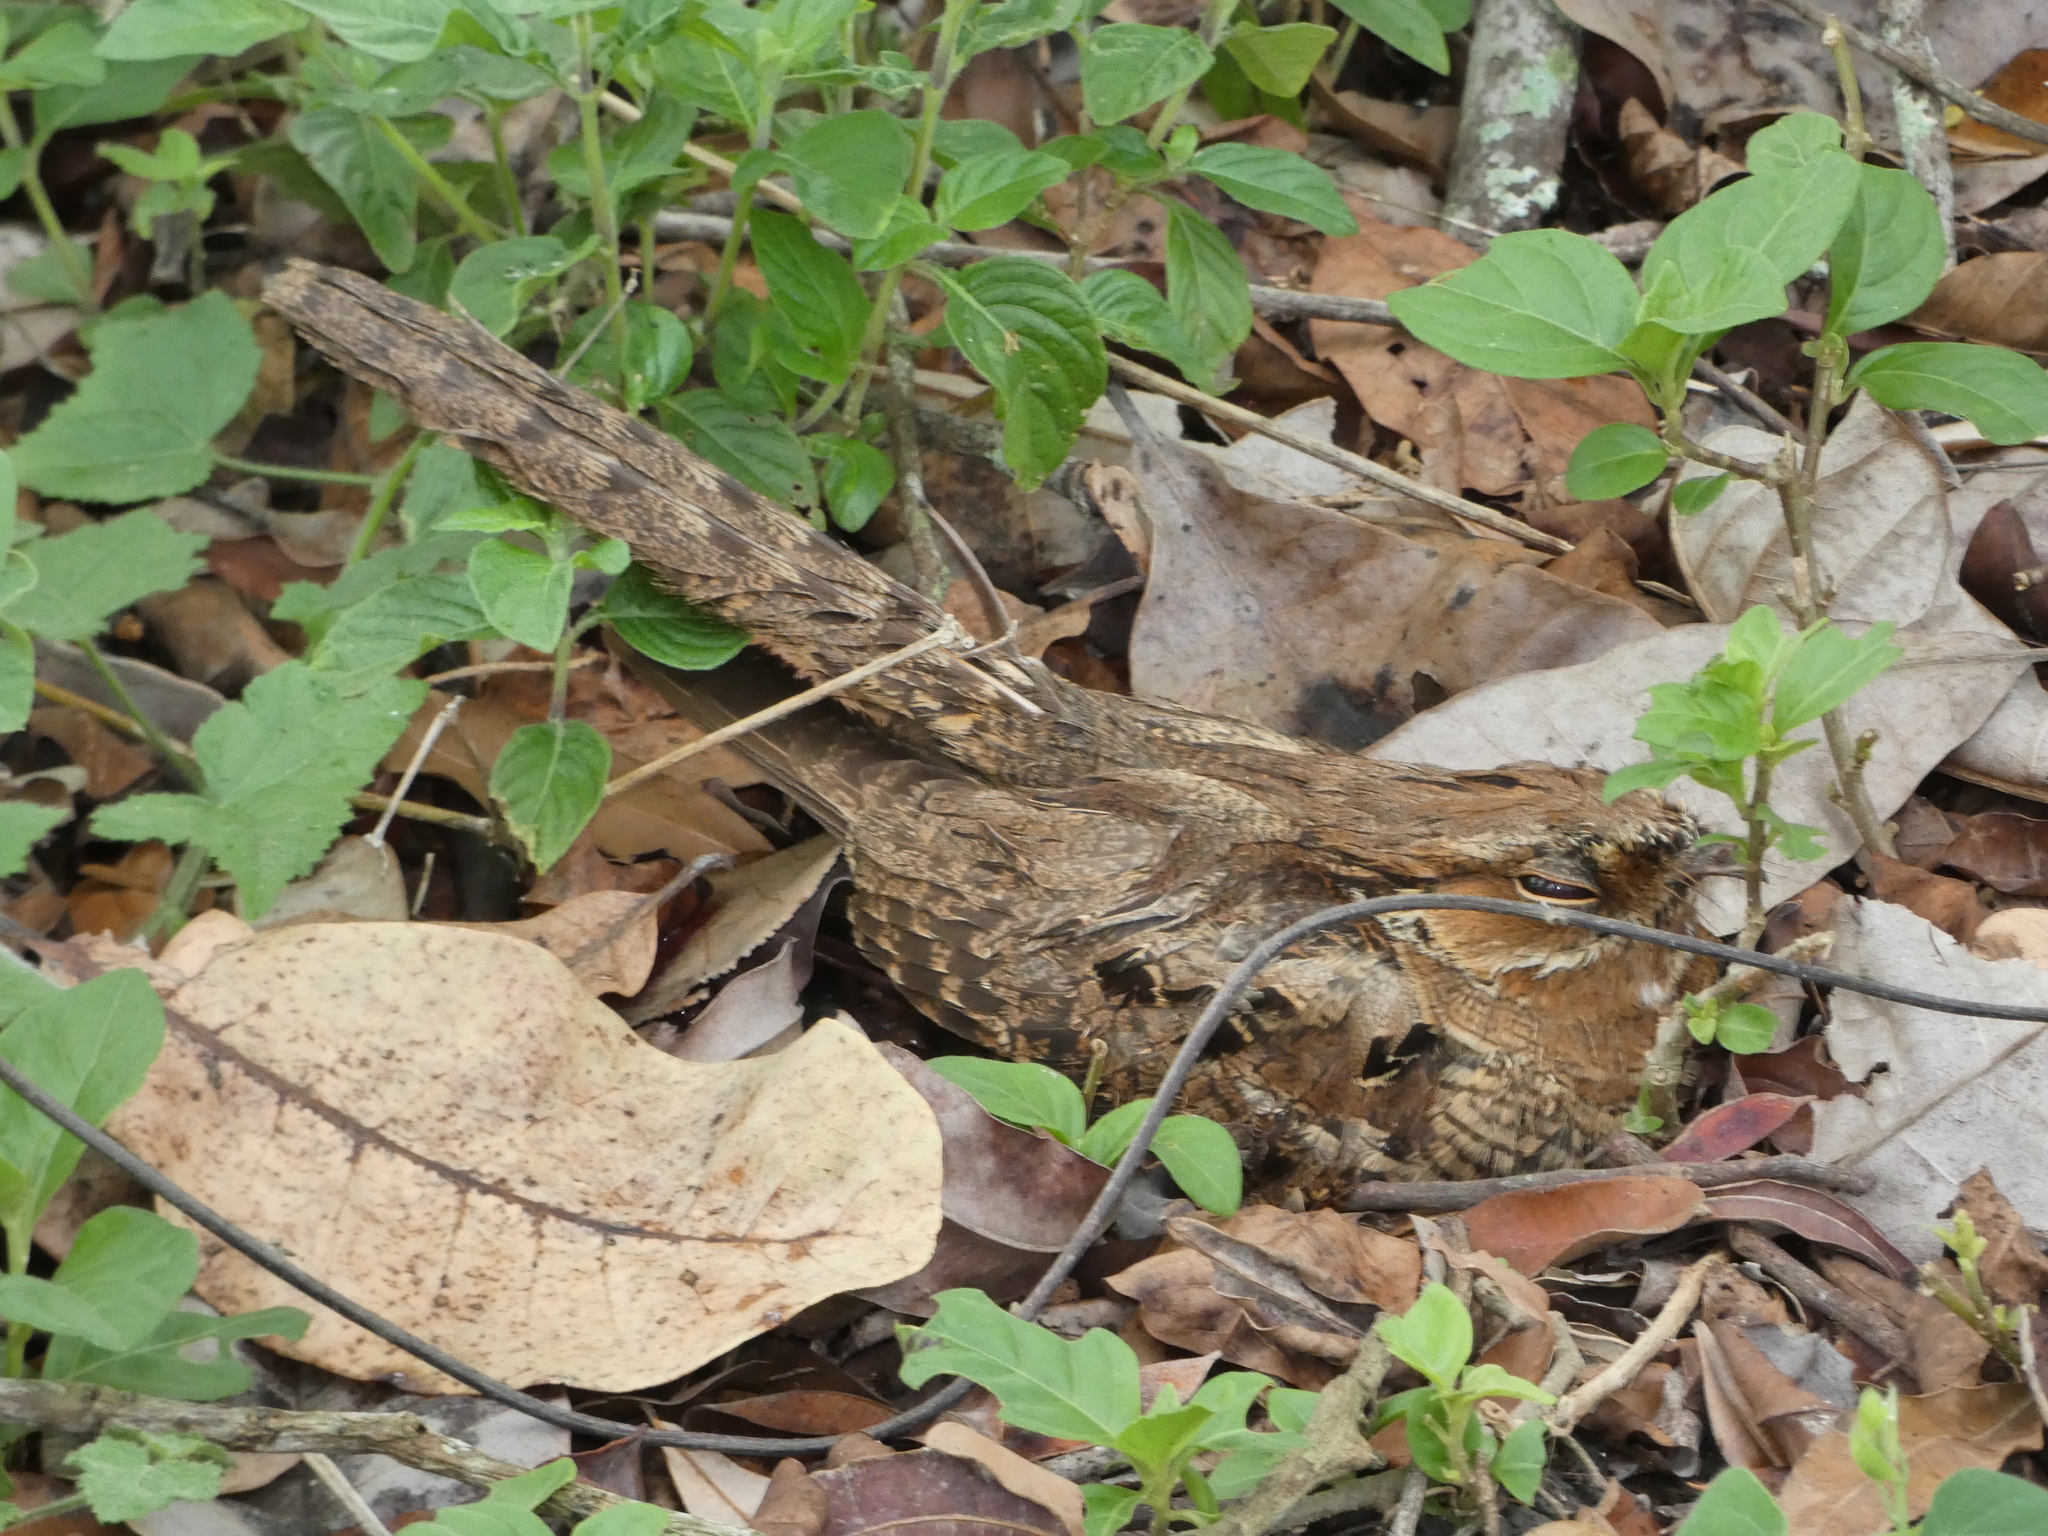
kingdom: Animalia
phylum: Chordata
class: Aves
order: Caprimulgiformes
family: Caprimulgidae
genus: Nyctidromus
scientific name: Nyctidromus albicollis
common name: Pauraque
